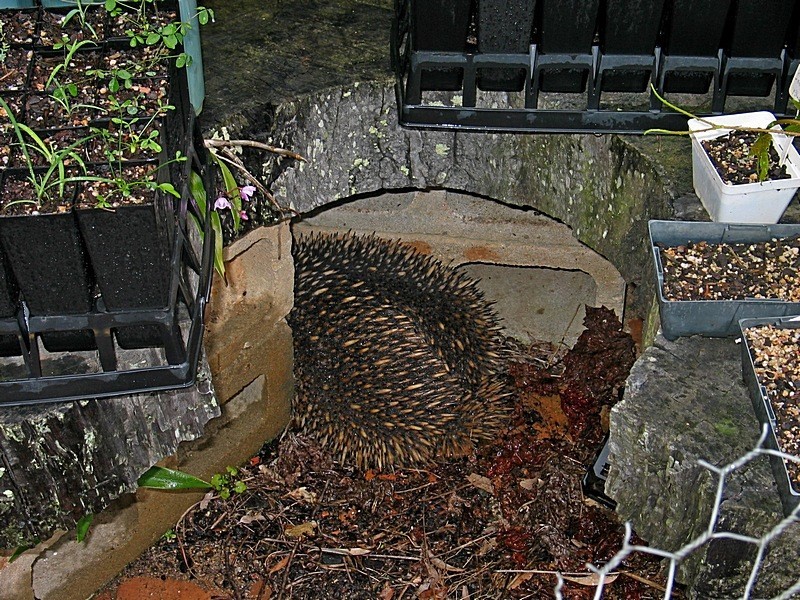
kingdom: Animalia
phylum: Chordata
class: Mammalia
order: Monotremata
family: Tachyglossidae
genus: Tachyglossus
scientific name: Tachyglossus aculeatus
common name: Short-beaked echidna
